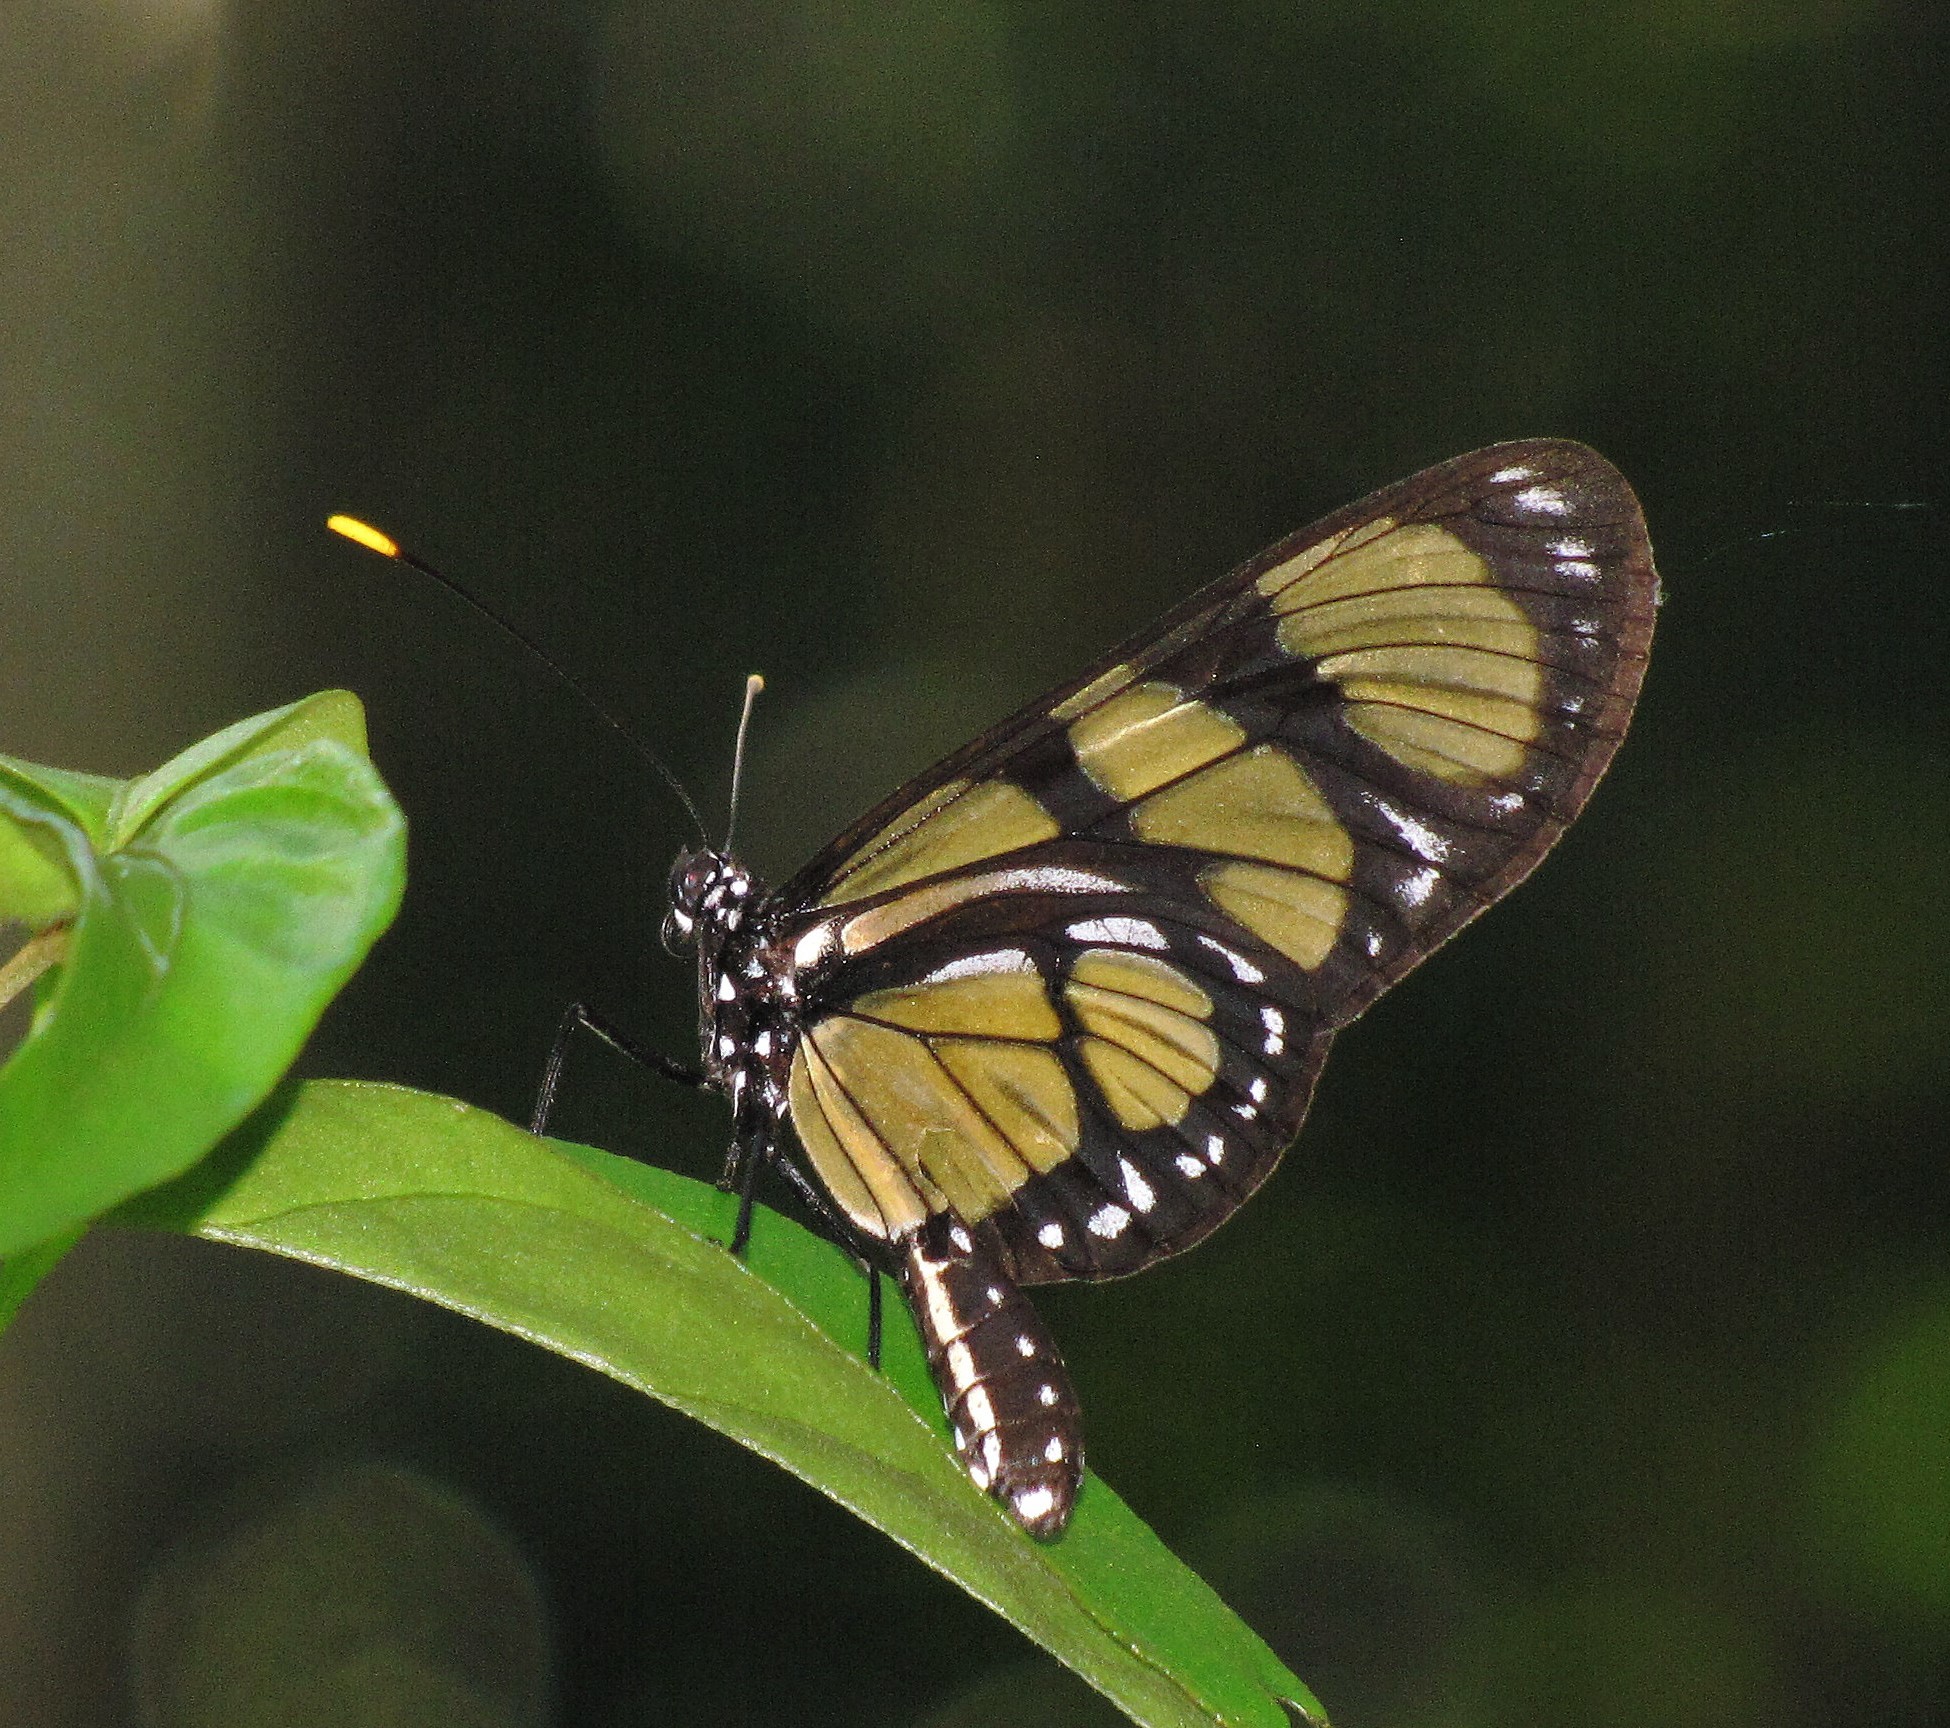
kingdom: Animalia
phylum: Arthropoda
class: Insecta
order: Lepidoptera
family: Nymphalidae
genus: Methona
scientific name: Methona themisto
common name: Themisto amberwing
